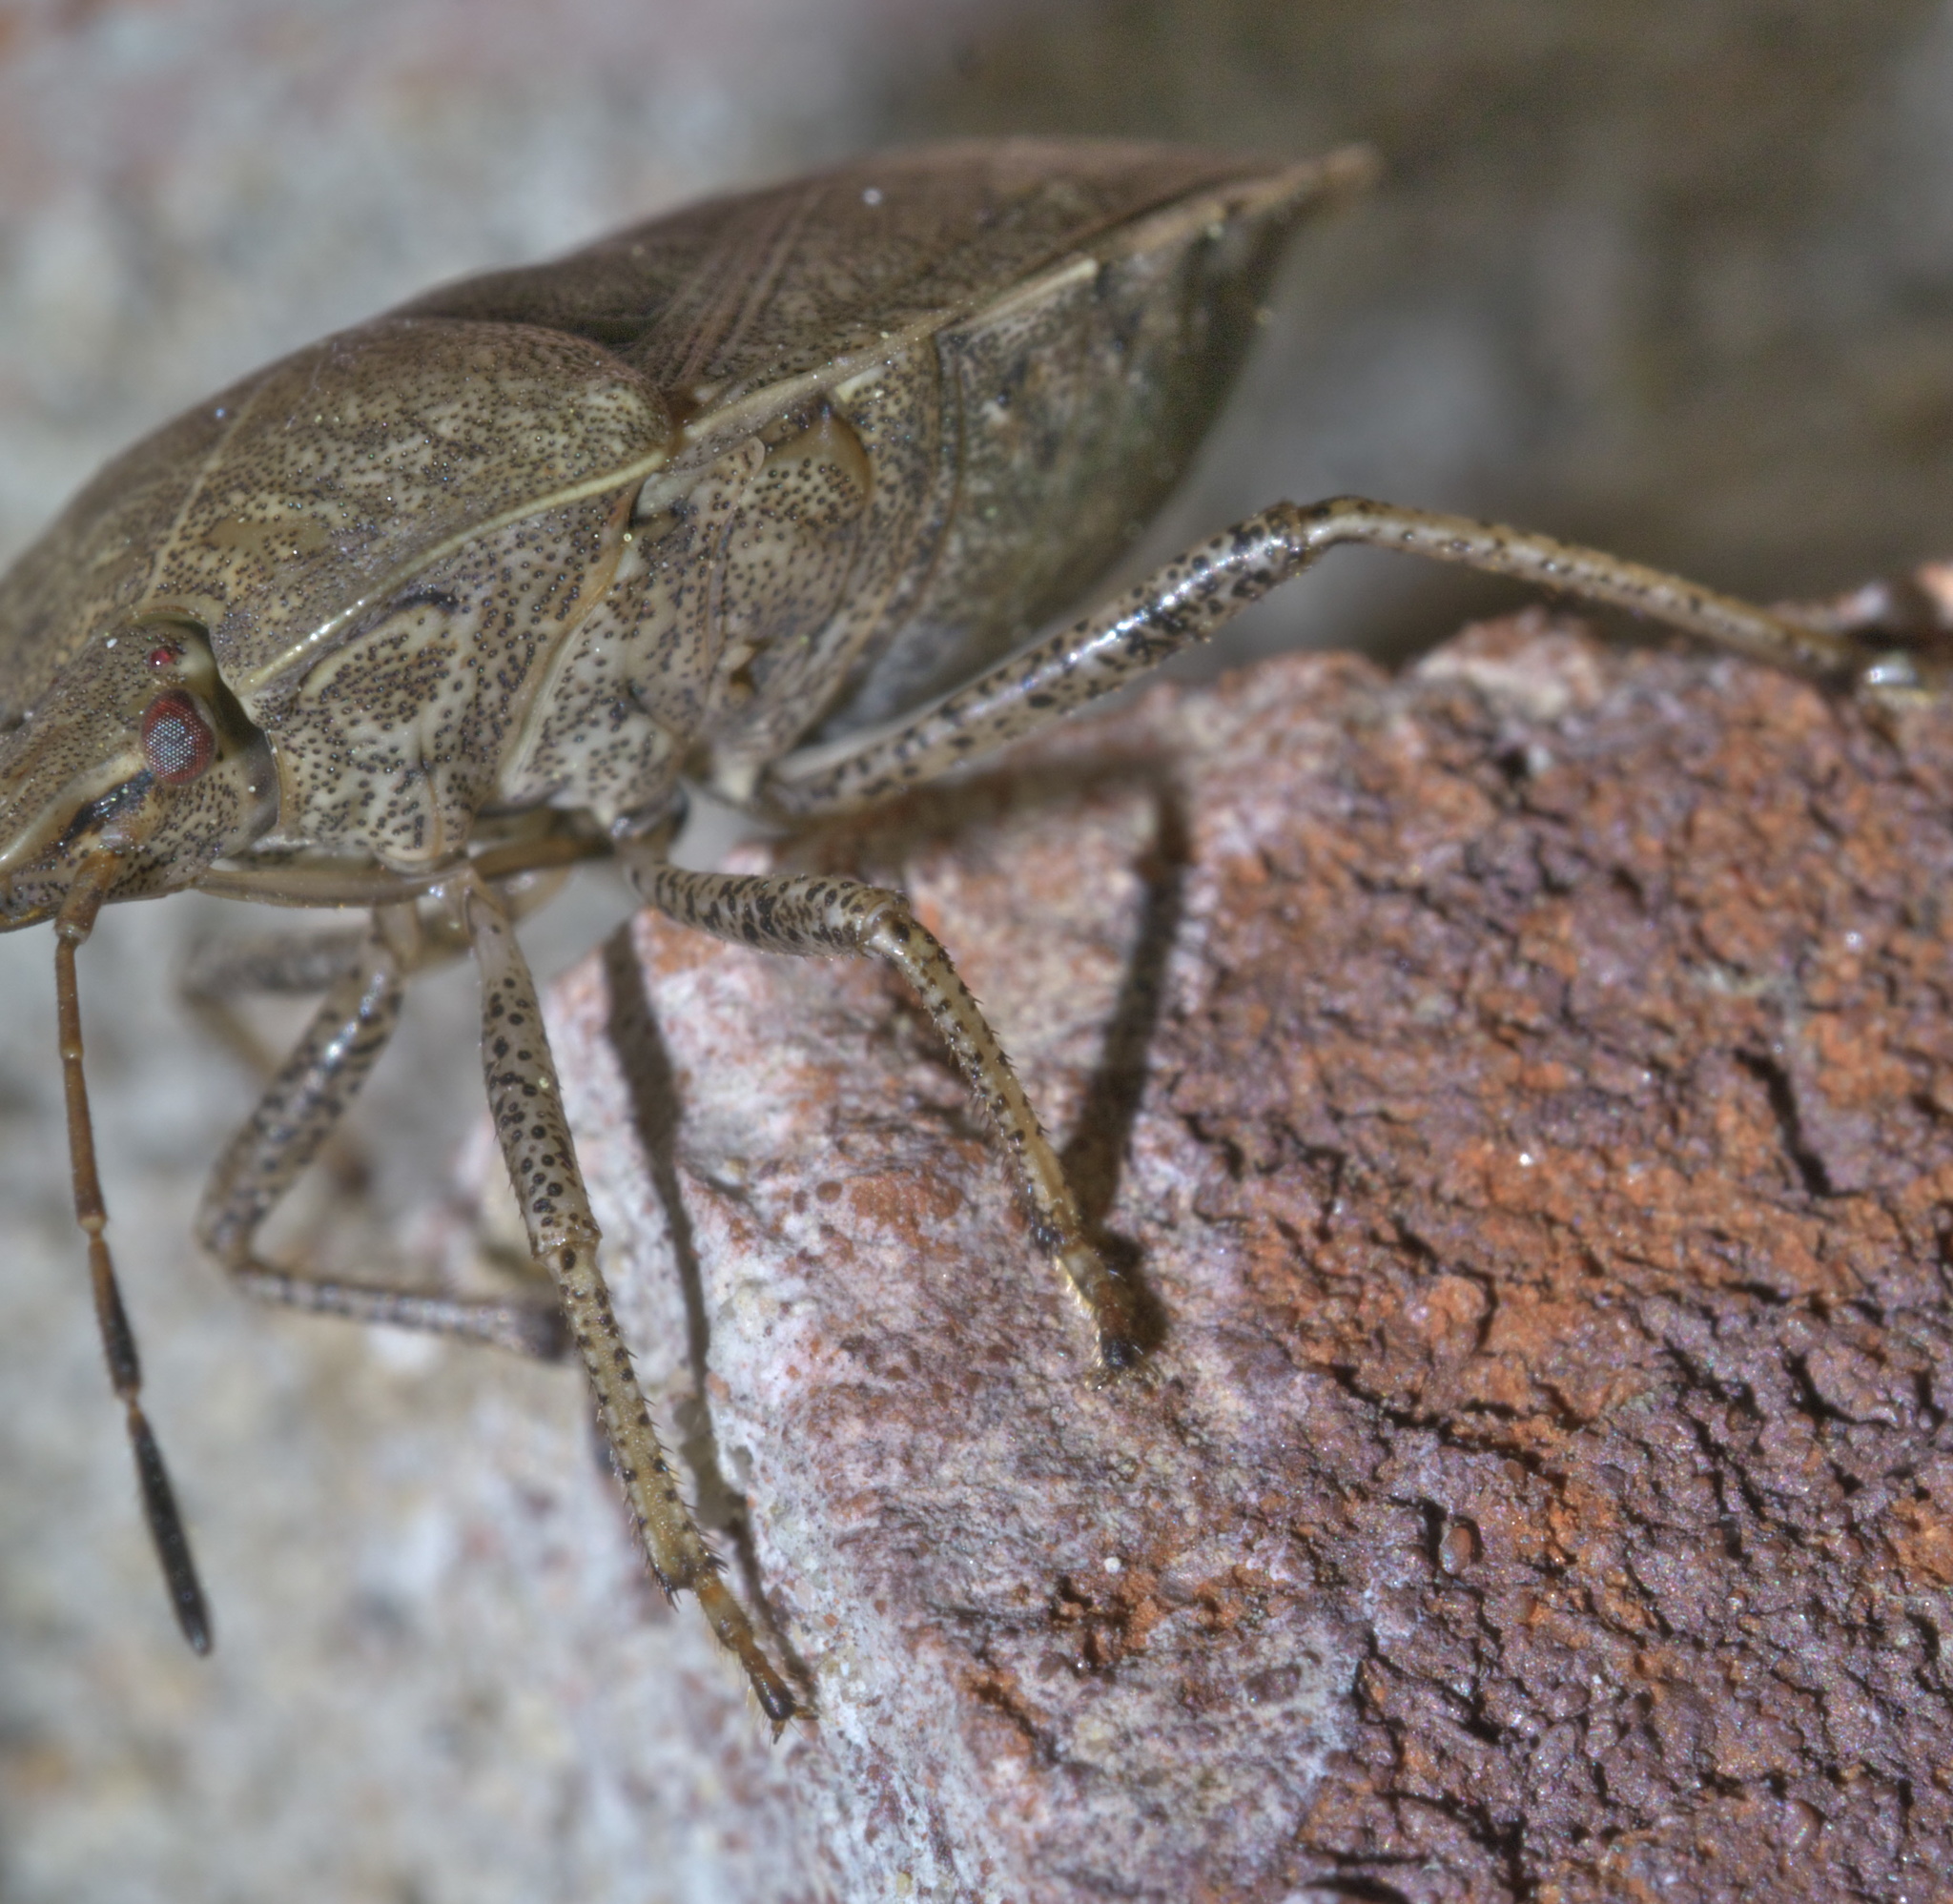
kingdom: Animalia
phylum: Arthropoda
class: Insecta
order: Hemiptera
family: Pentatomidae
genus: Menecles
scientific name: Menecles insertus
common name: Elf shoe stink bug
